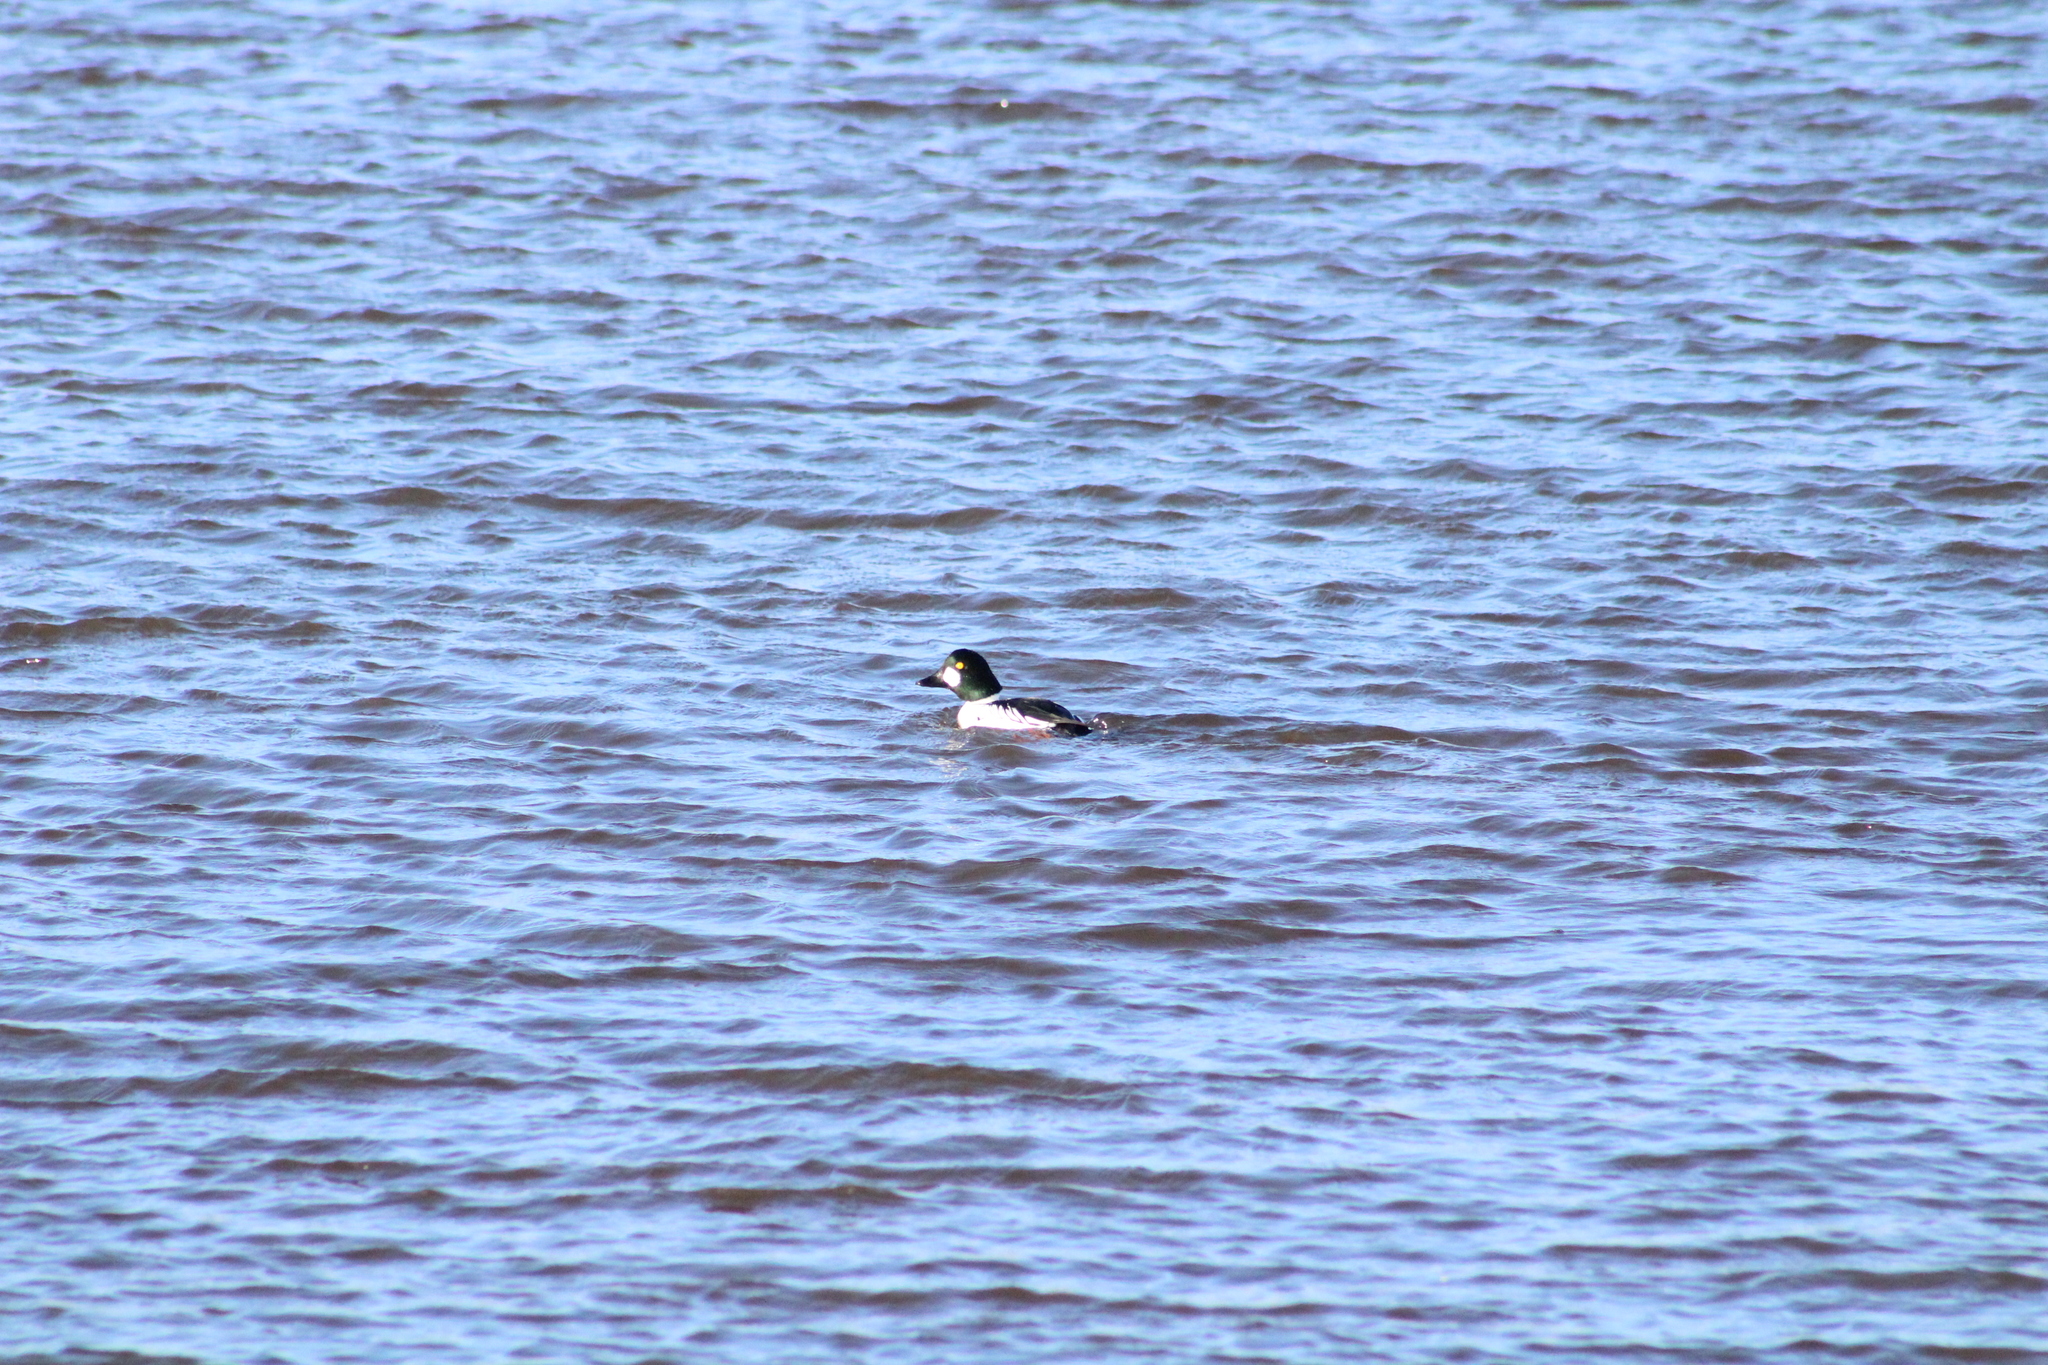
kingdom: Animalia
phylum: Chordata
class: Aves
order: Anseriformes
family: Anatidae
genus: Bucephala
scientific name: Bucephala clangula
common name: Common goldeneye
